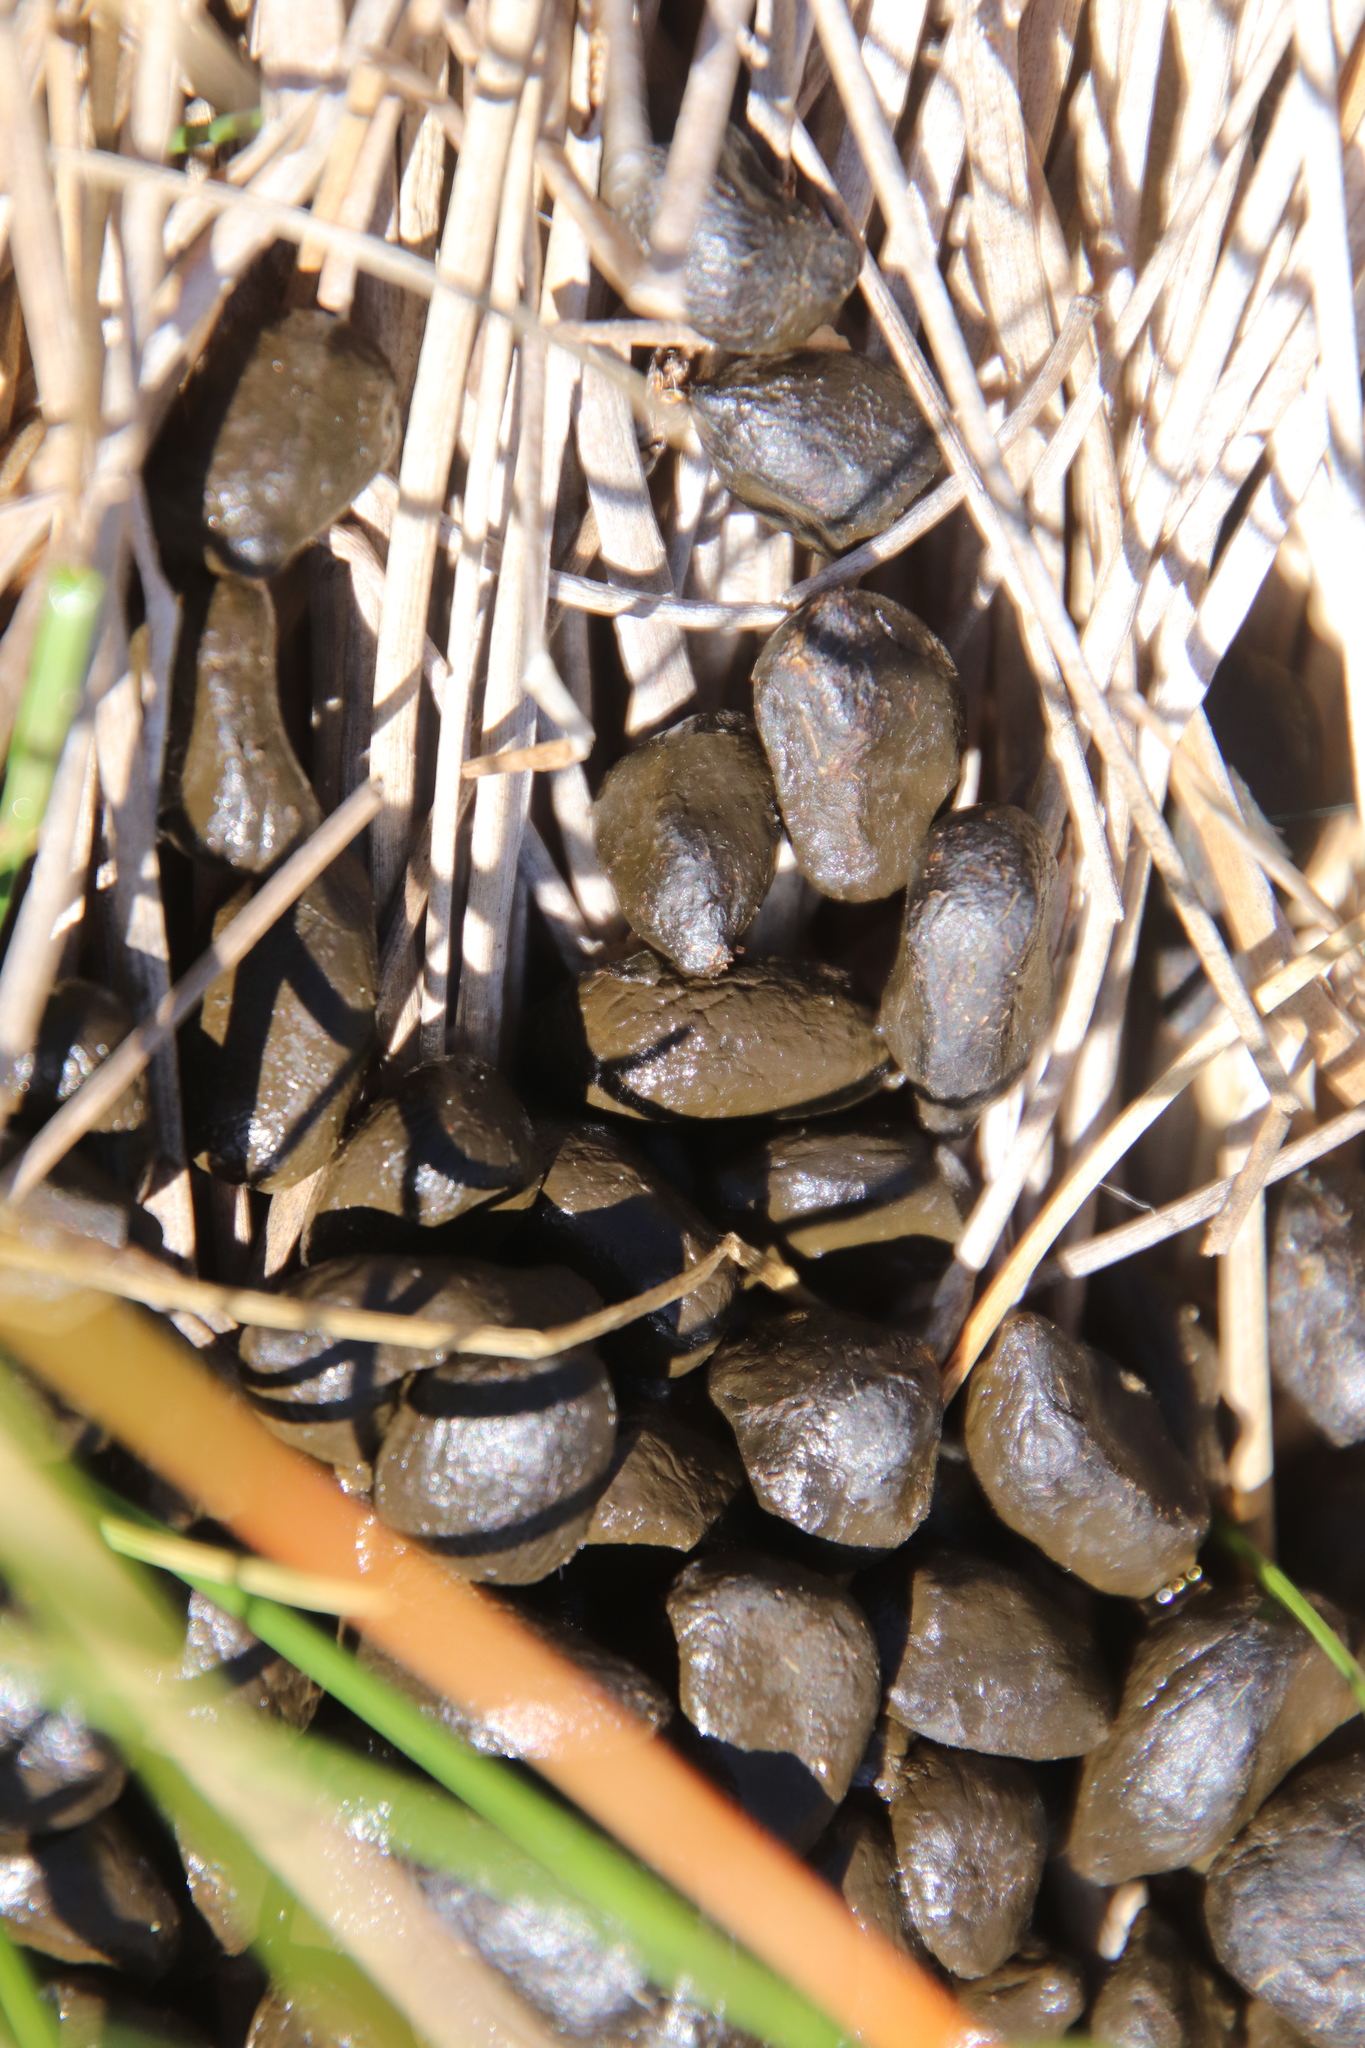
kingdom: Animalia
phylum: Chordata
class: Mammalia
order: Artiodactyla
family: Cervidae
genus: Odocoileus
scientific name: Odocoileus hemionus
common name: Mule deer
